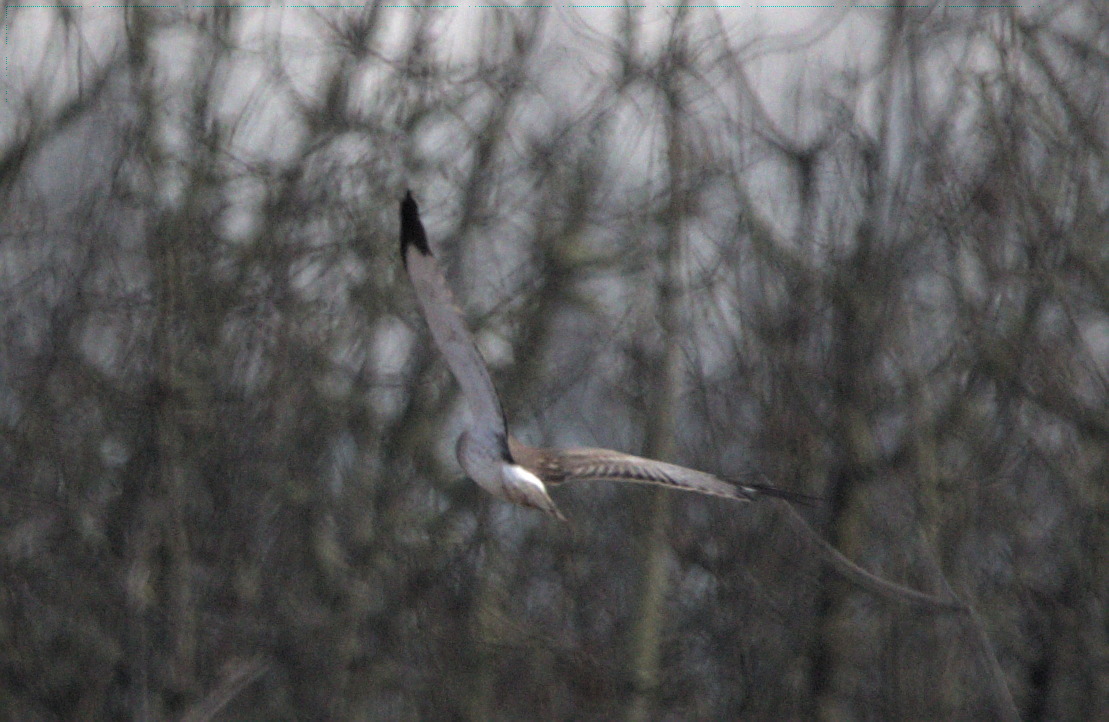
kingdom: Animalia
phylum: Chordata
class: Aves
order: Accipitriformes
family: Accipitridae
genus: Circus
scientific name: Circus cyaneus
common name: Hen harrier
